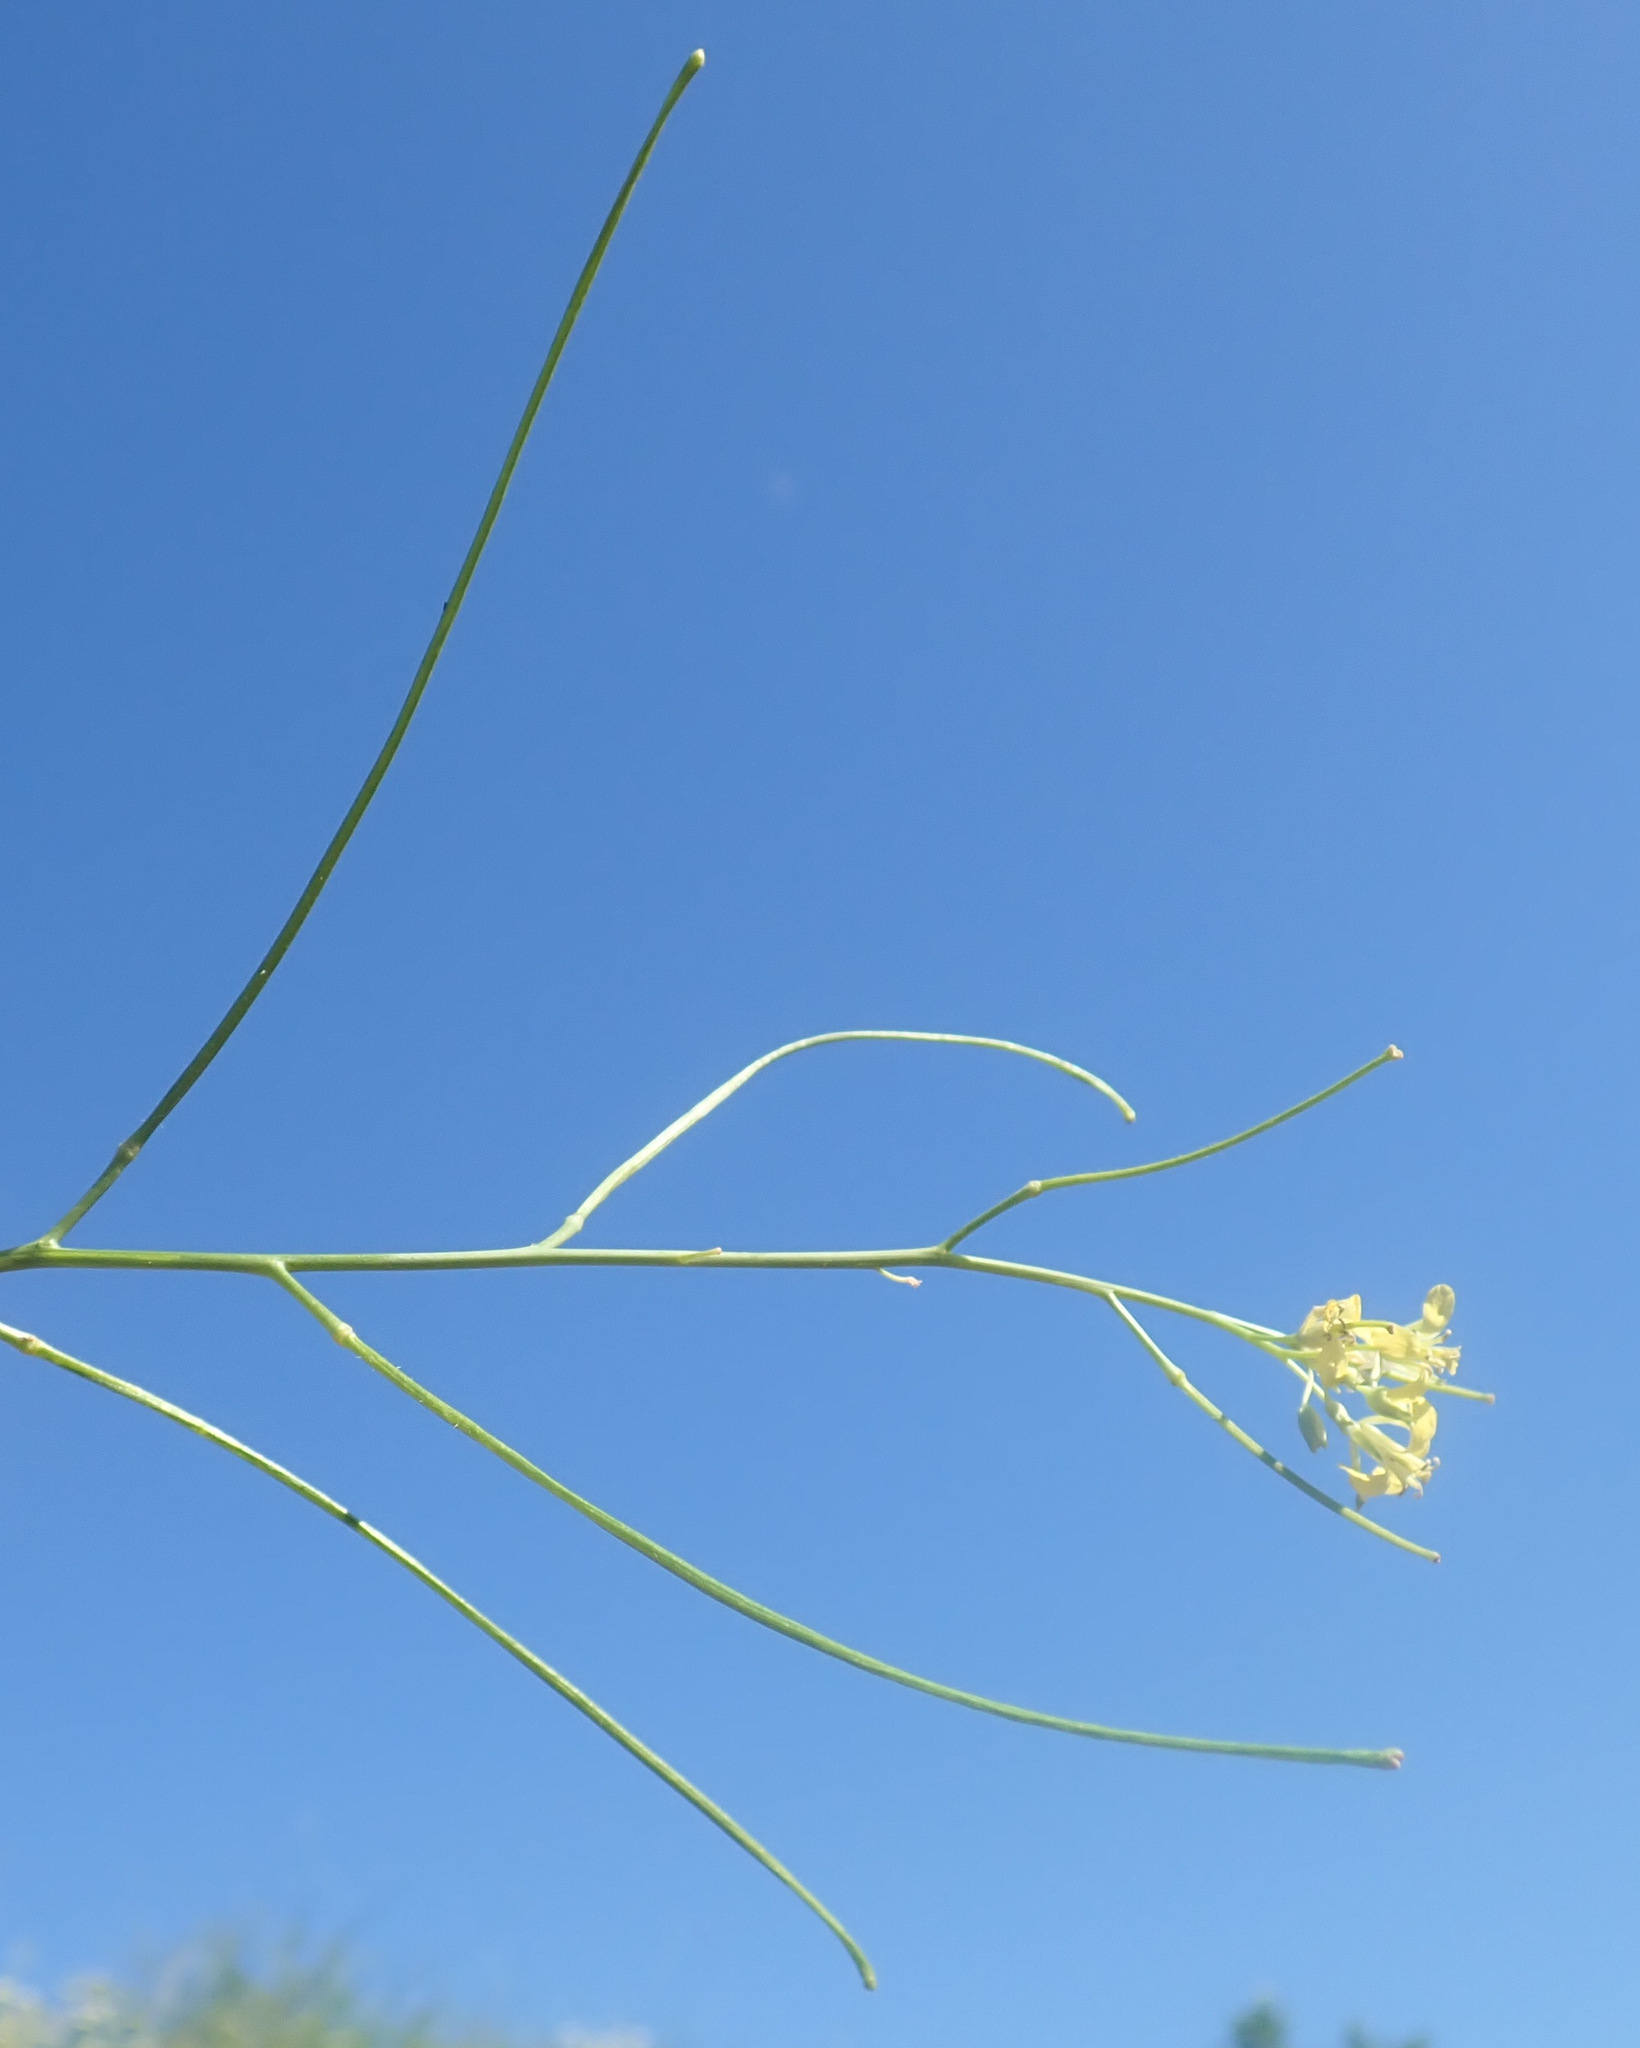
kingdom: Plantae
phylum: Tracheophyta
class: Magnoliopsida
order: Brassicales
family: Brassicaceae
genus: Sisymbrium
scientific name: Sisymbrium altissimum
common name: Tall rocket
